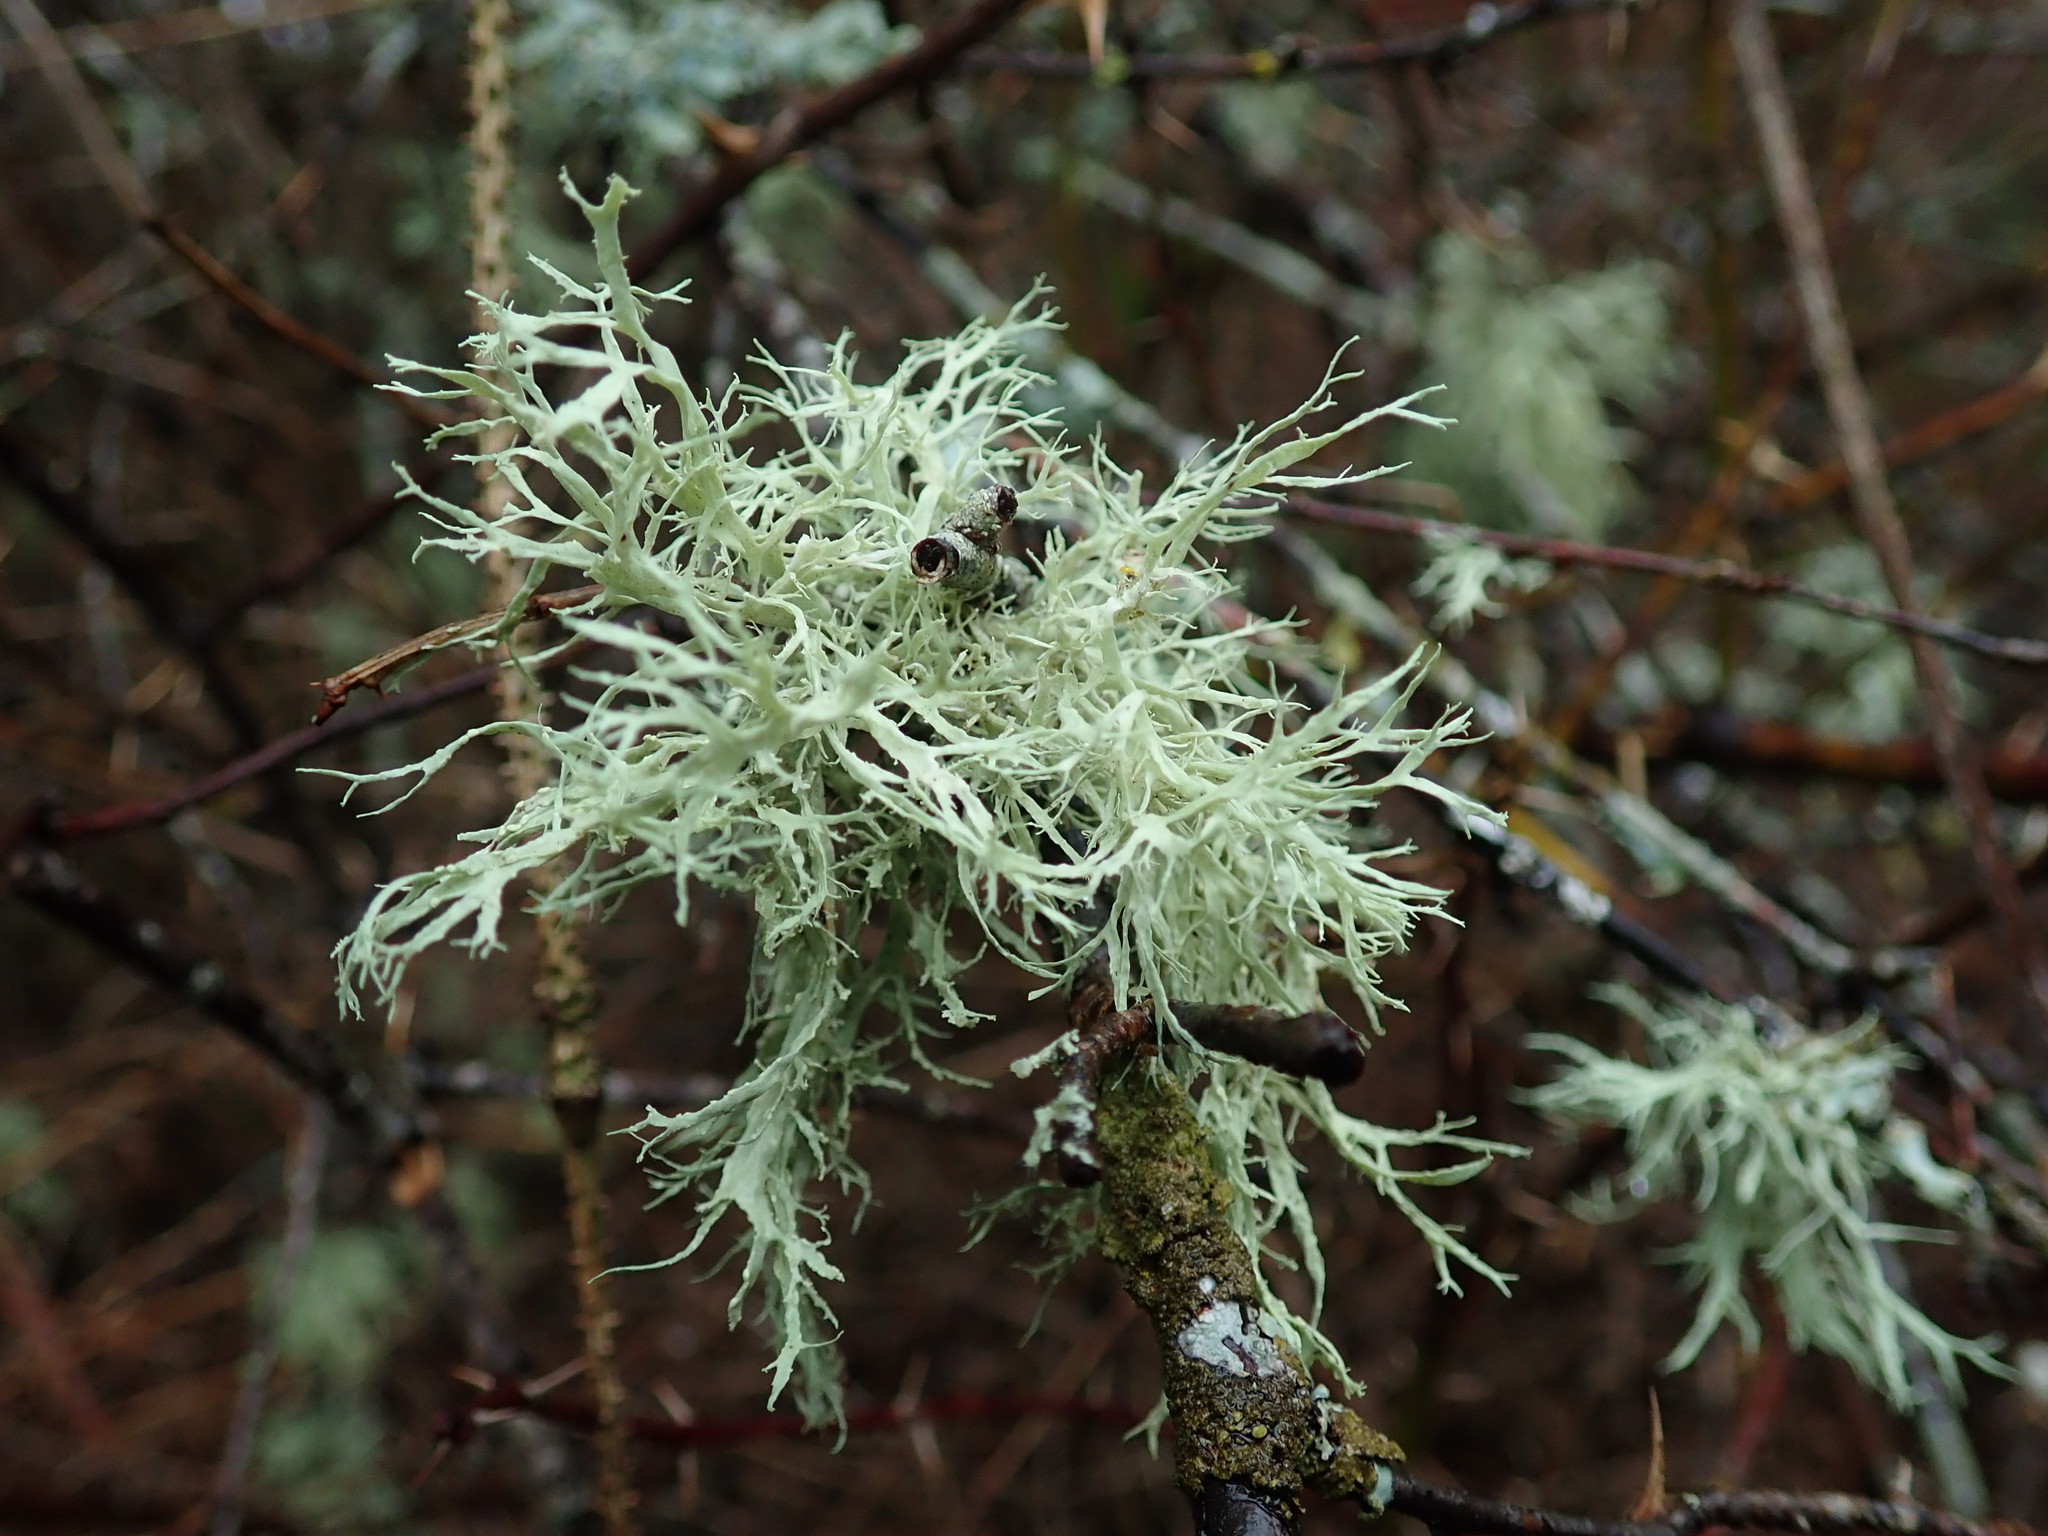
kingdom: Fungi
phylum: Ascomycota
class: Lecanoromycetes
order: Lecanorales
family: Ramalinaceae
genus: Ramalina
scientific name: Ramalina farinacea
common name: Farinose cartilage lichen
